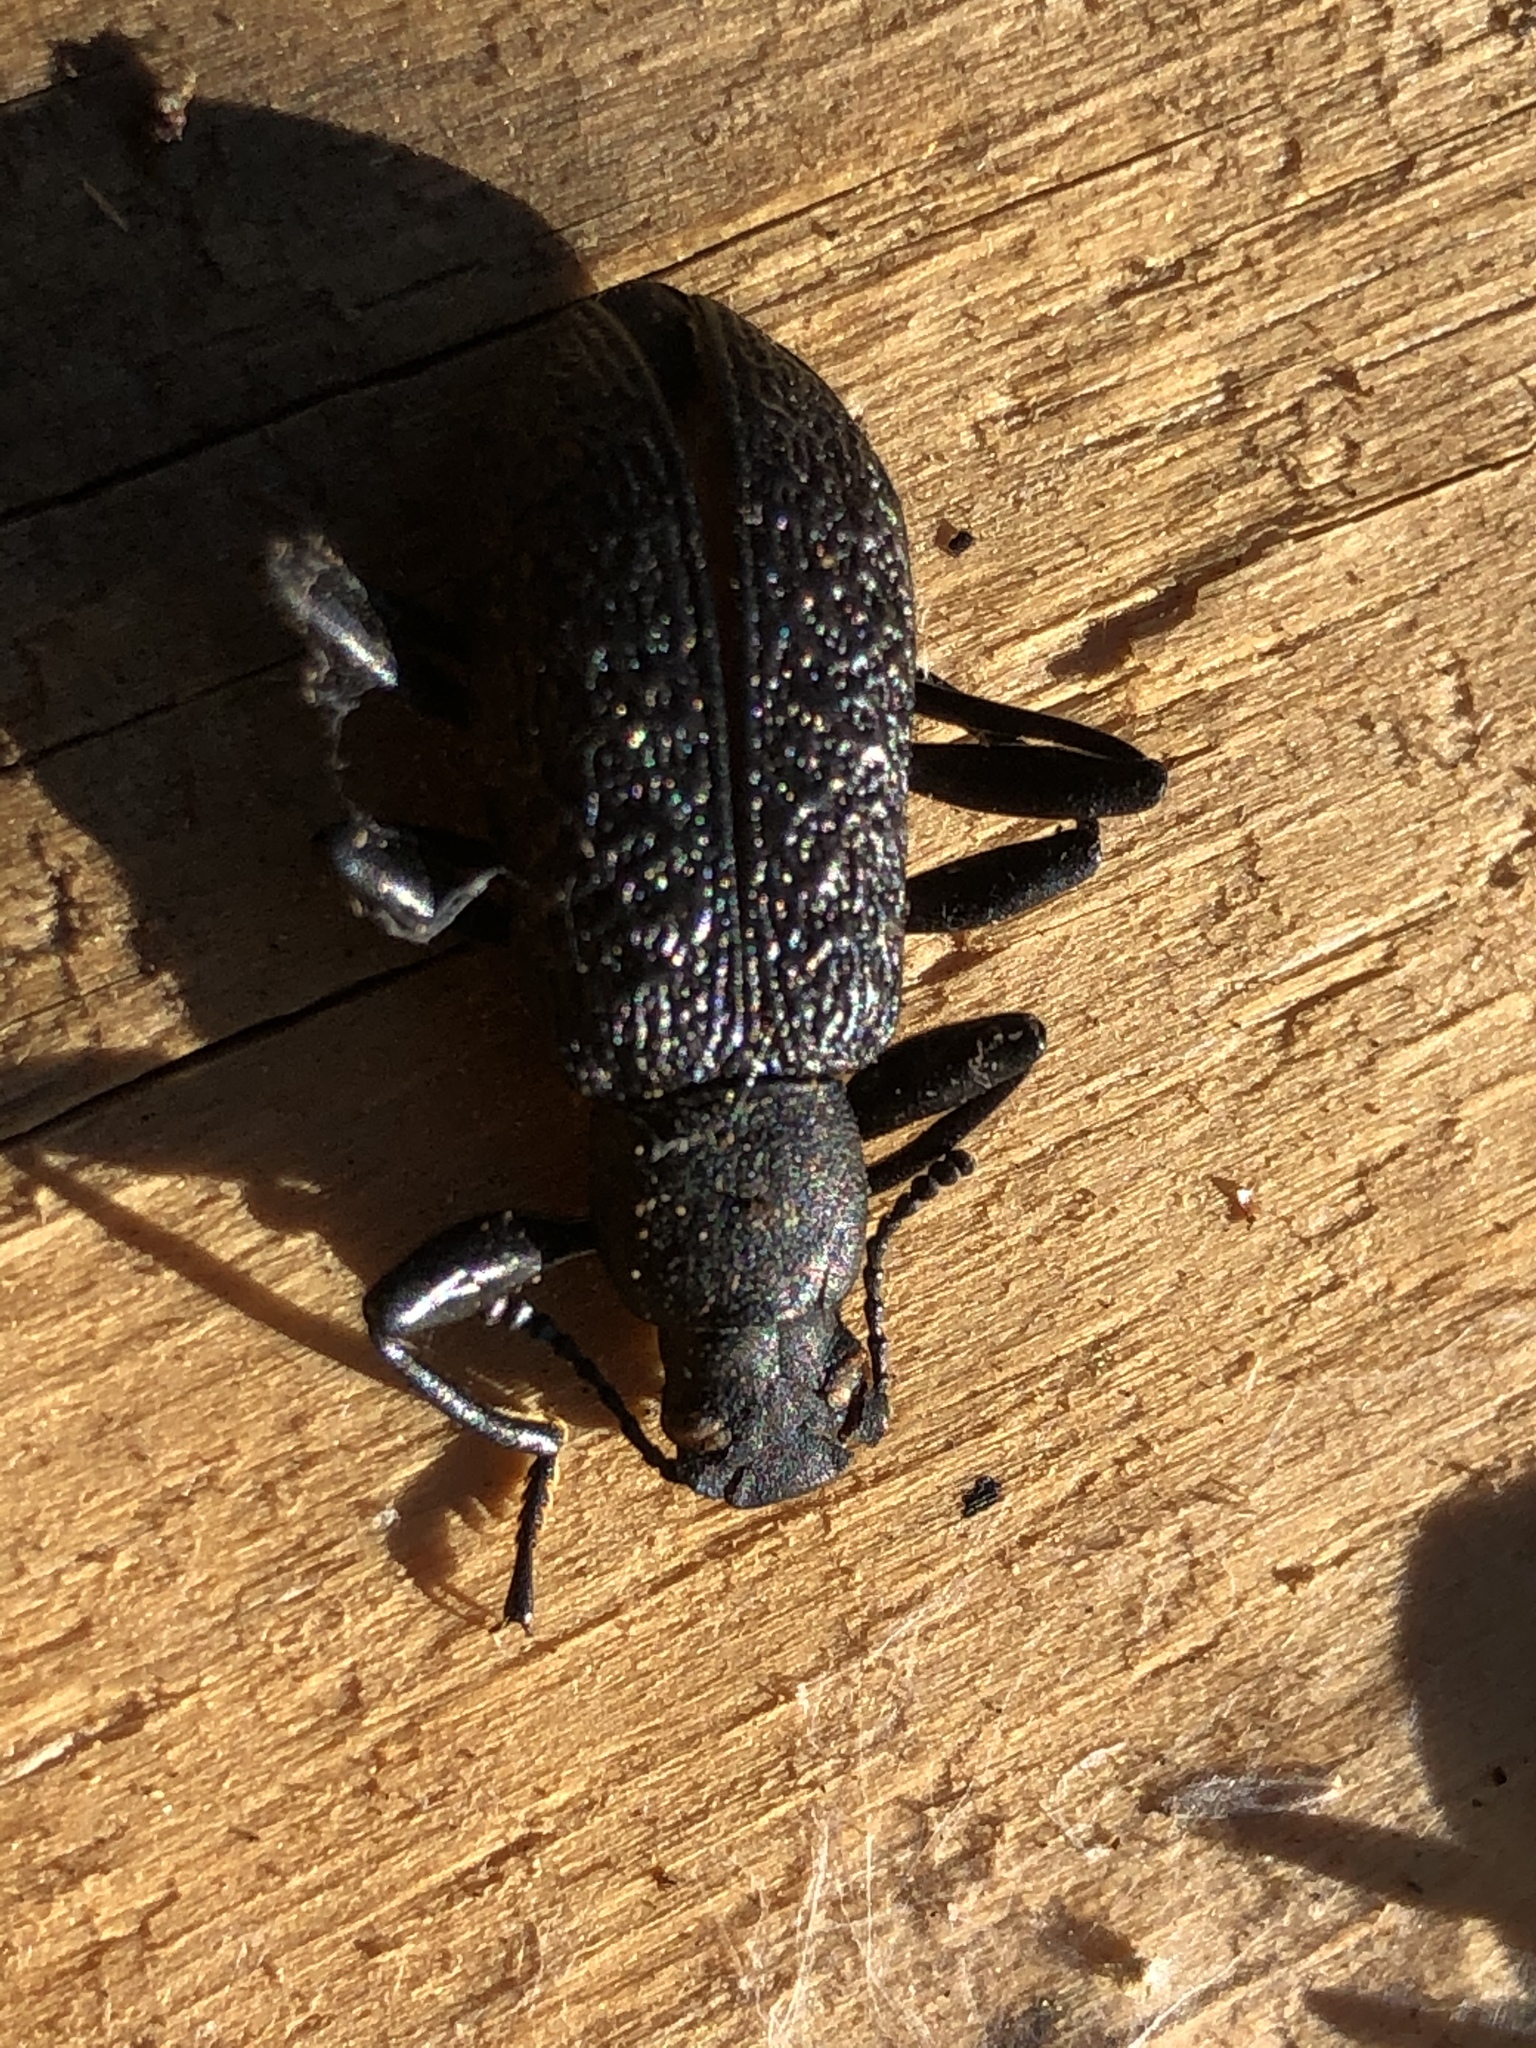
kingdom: Animalia
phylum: Arthropoda
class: Insecta
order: Coleoptera
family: Tenebrionidae
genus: Upis
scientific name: Upis ceramboides
